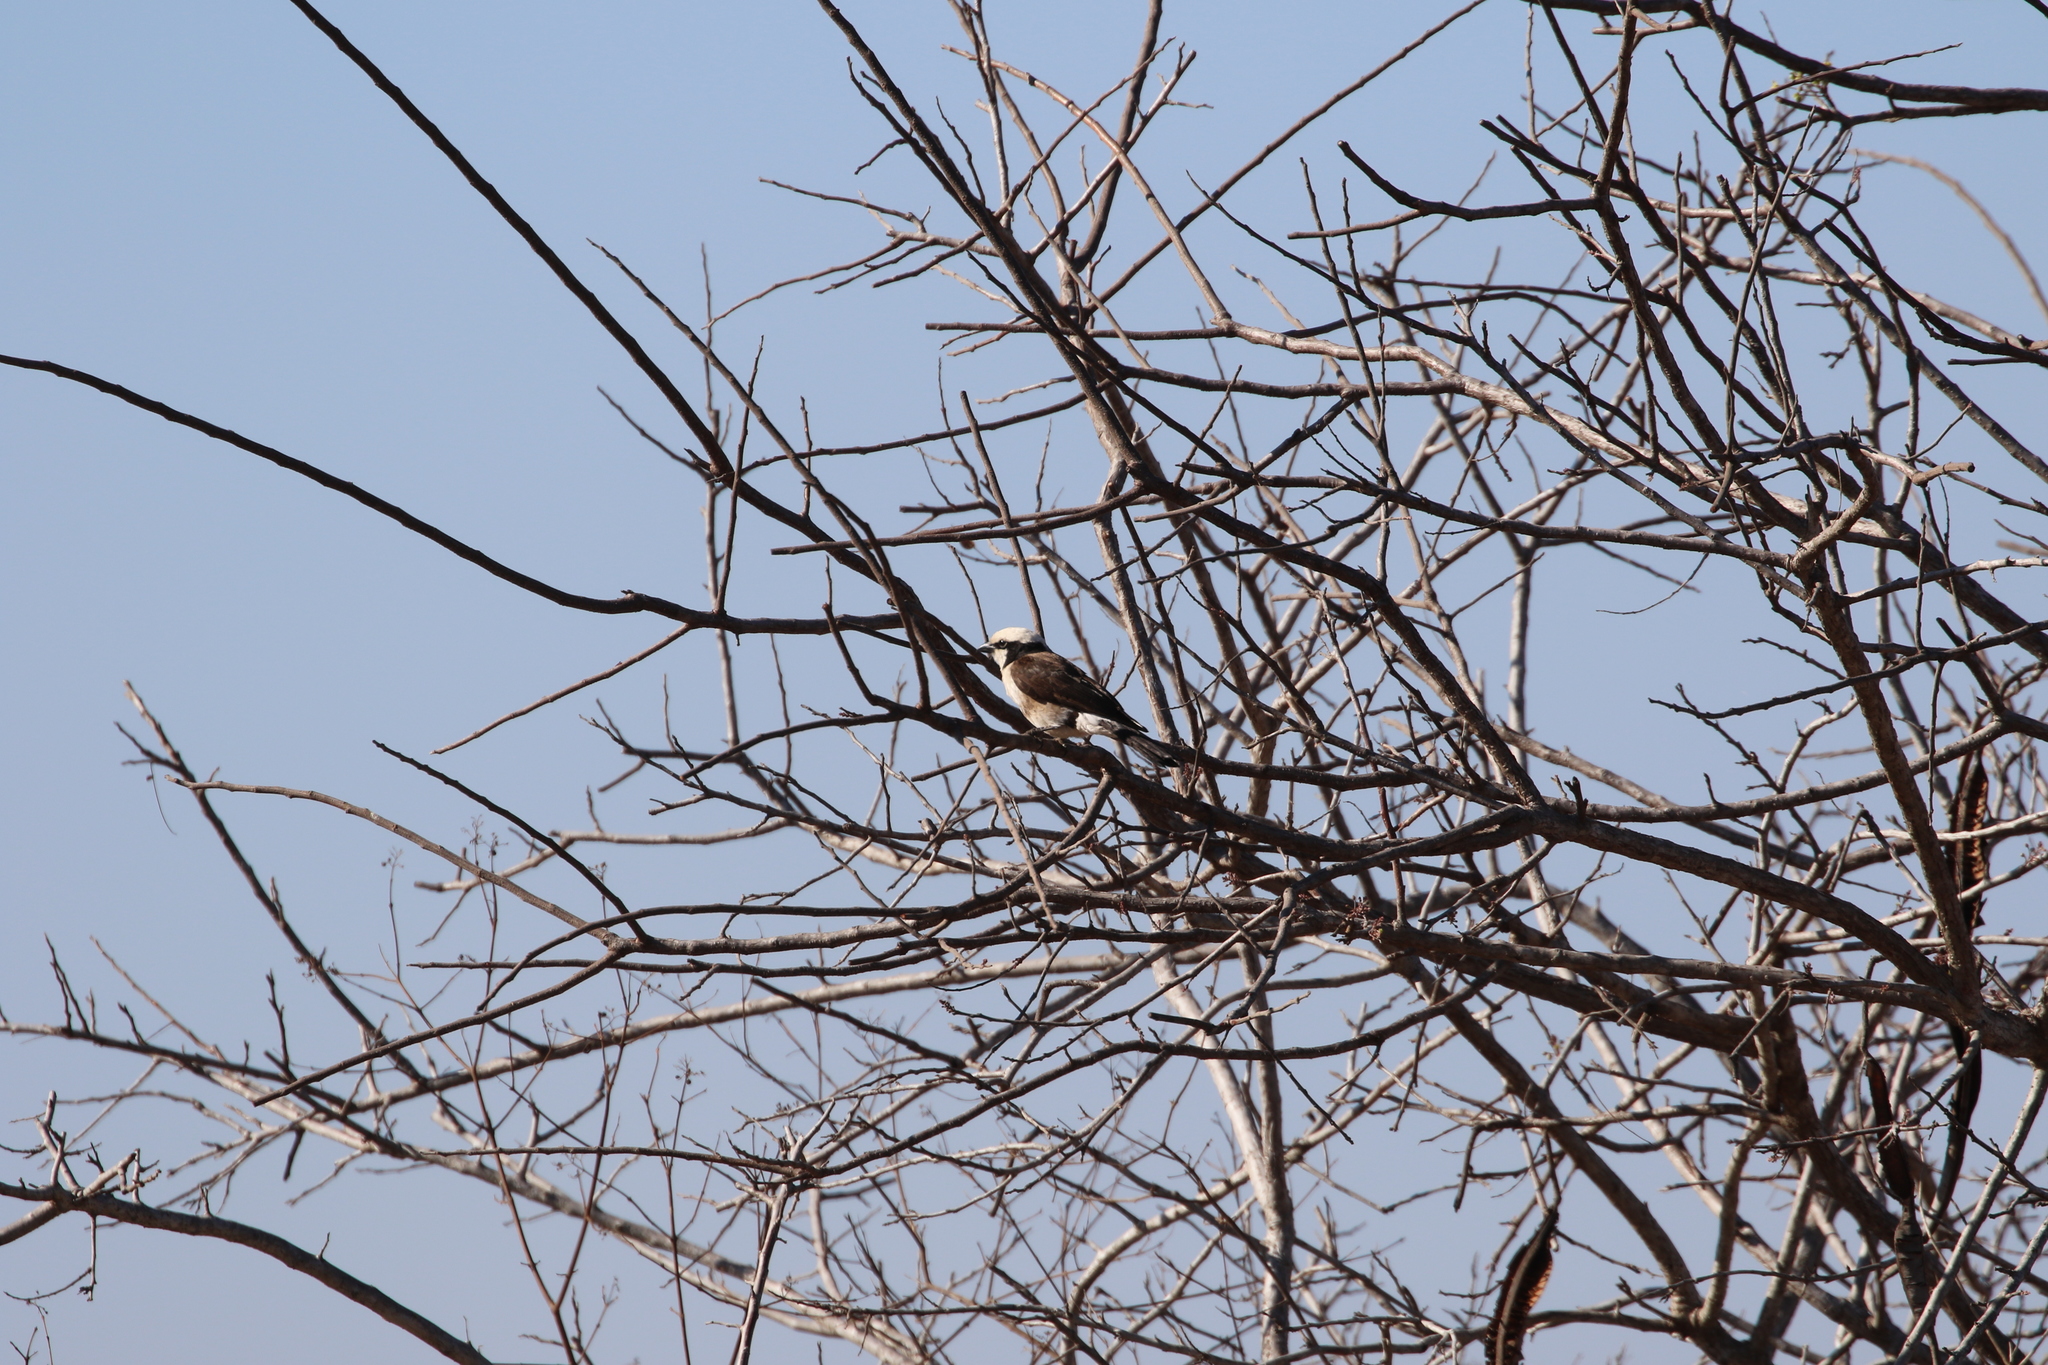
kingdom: Animalia
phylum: Chordata
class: Aves
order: Passeriformes
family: Laniidae
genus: Eurocephalus
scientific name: Eurocephalus ruppelli
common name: Northern white-crowned shrike
